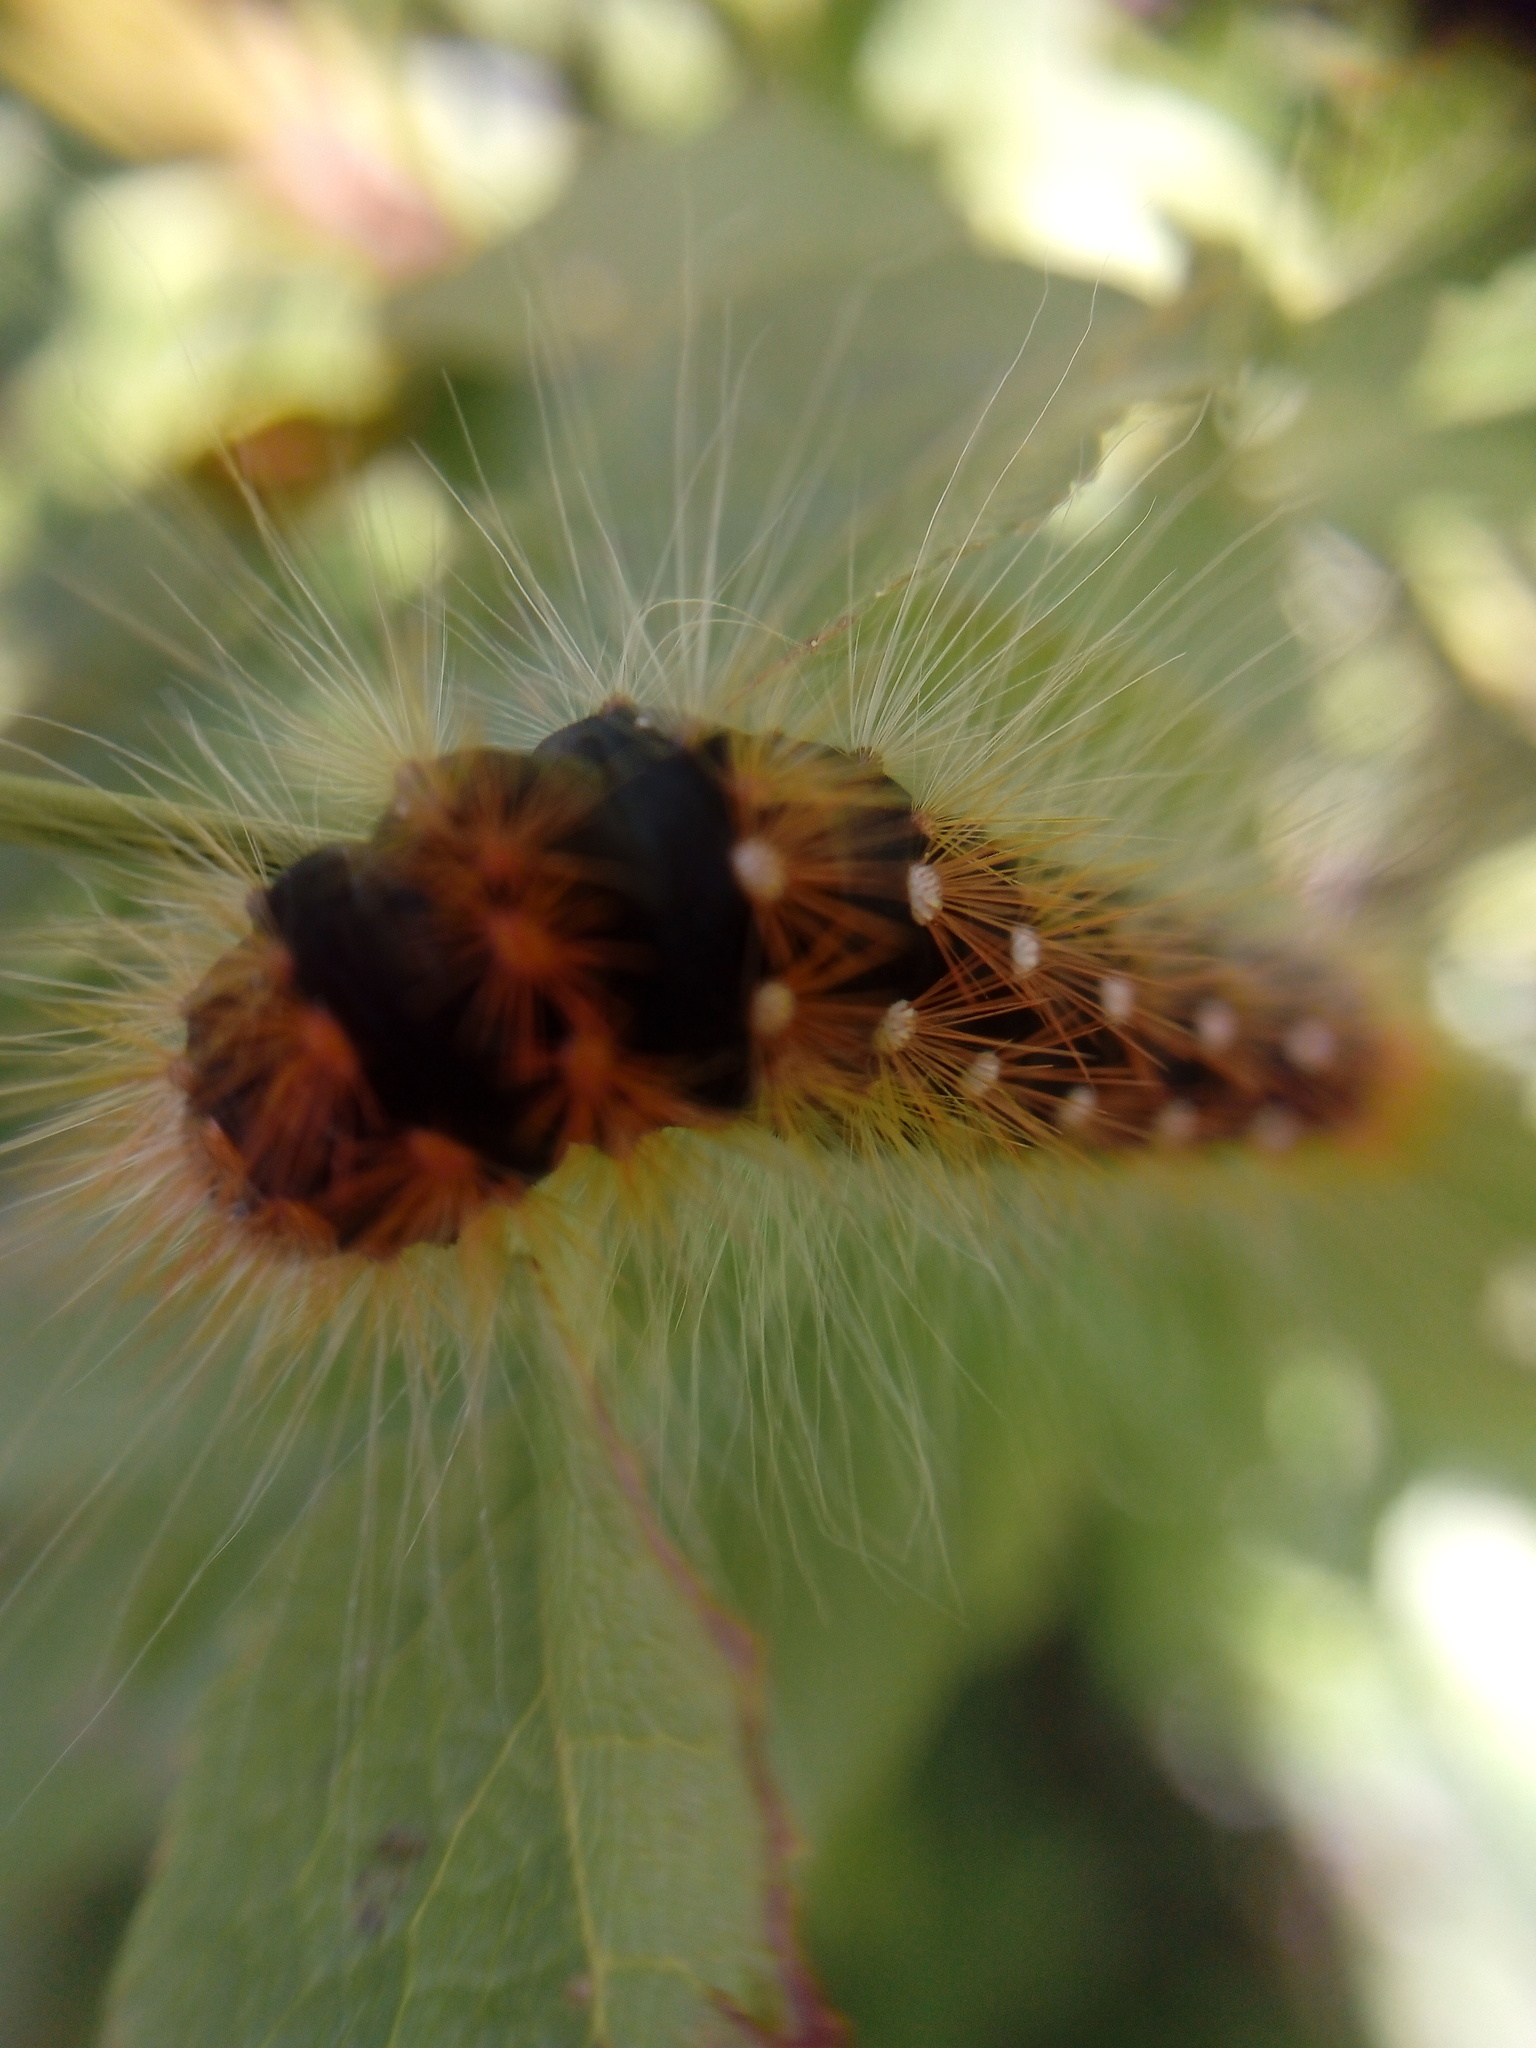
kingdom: Animalia
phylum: Arthropoda
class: Insecta
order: Lepidoptera
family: Noctuidae
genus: Acronicta
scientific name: Acronicta auricoma
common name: Scarce dagger
